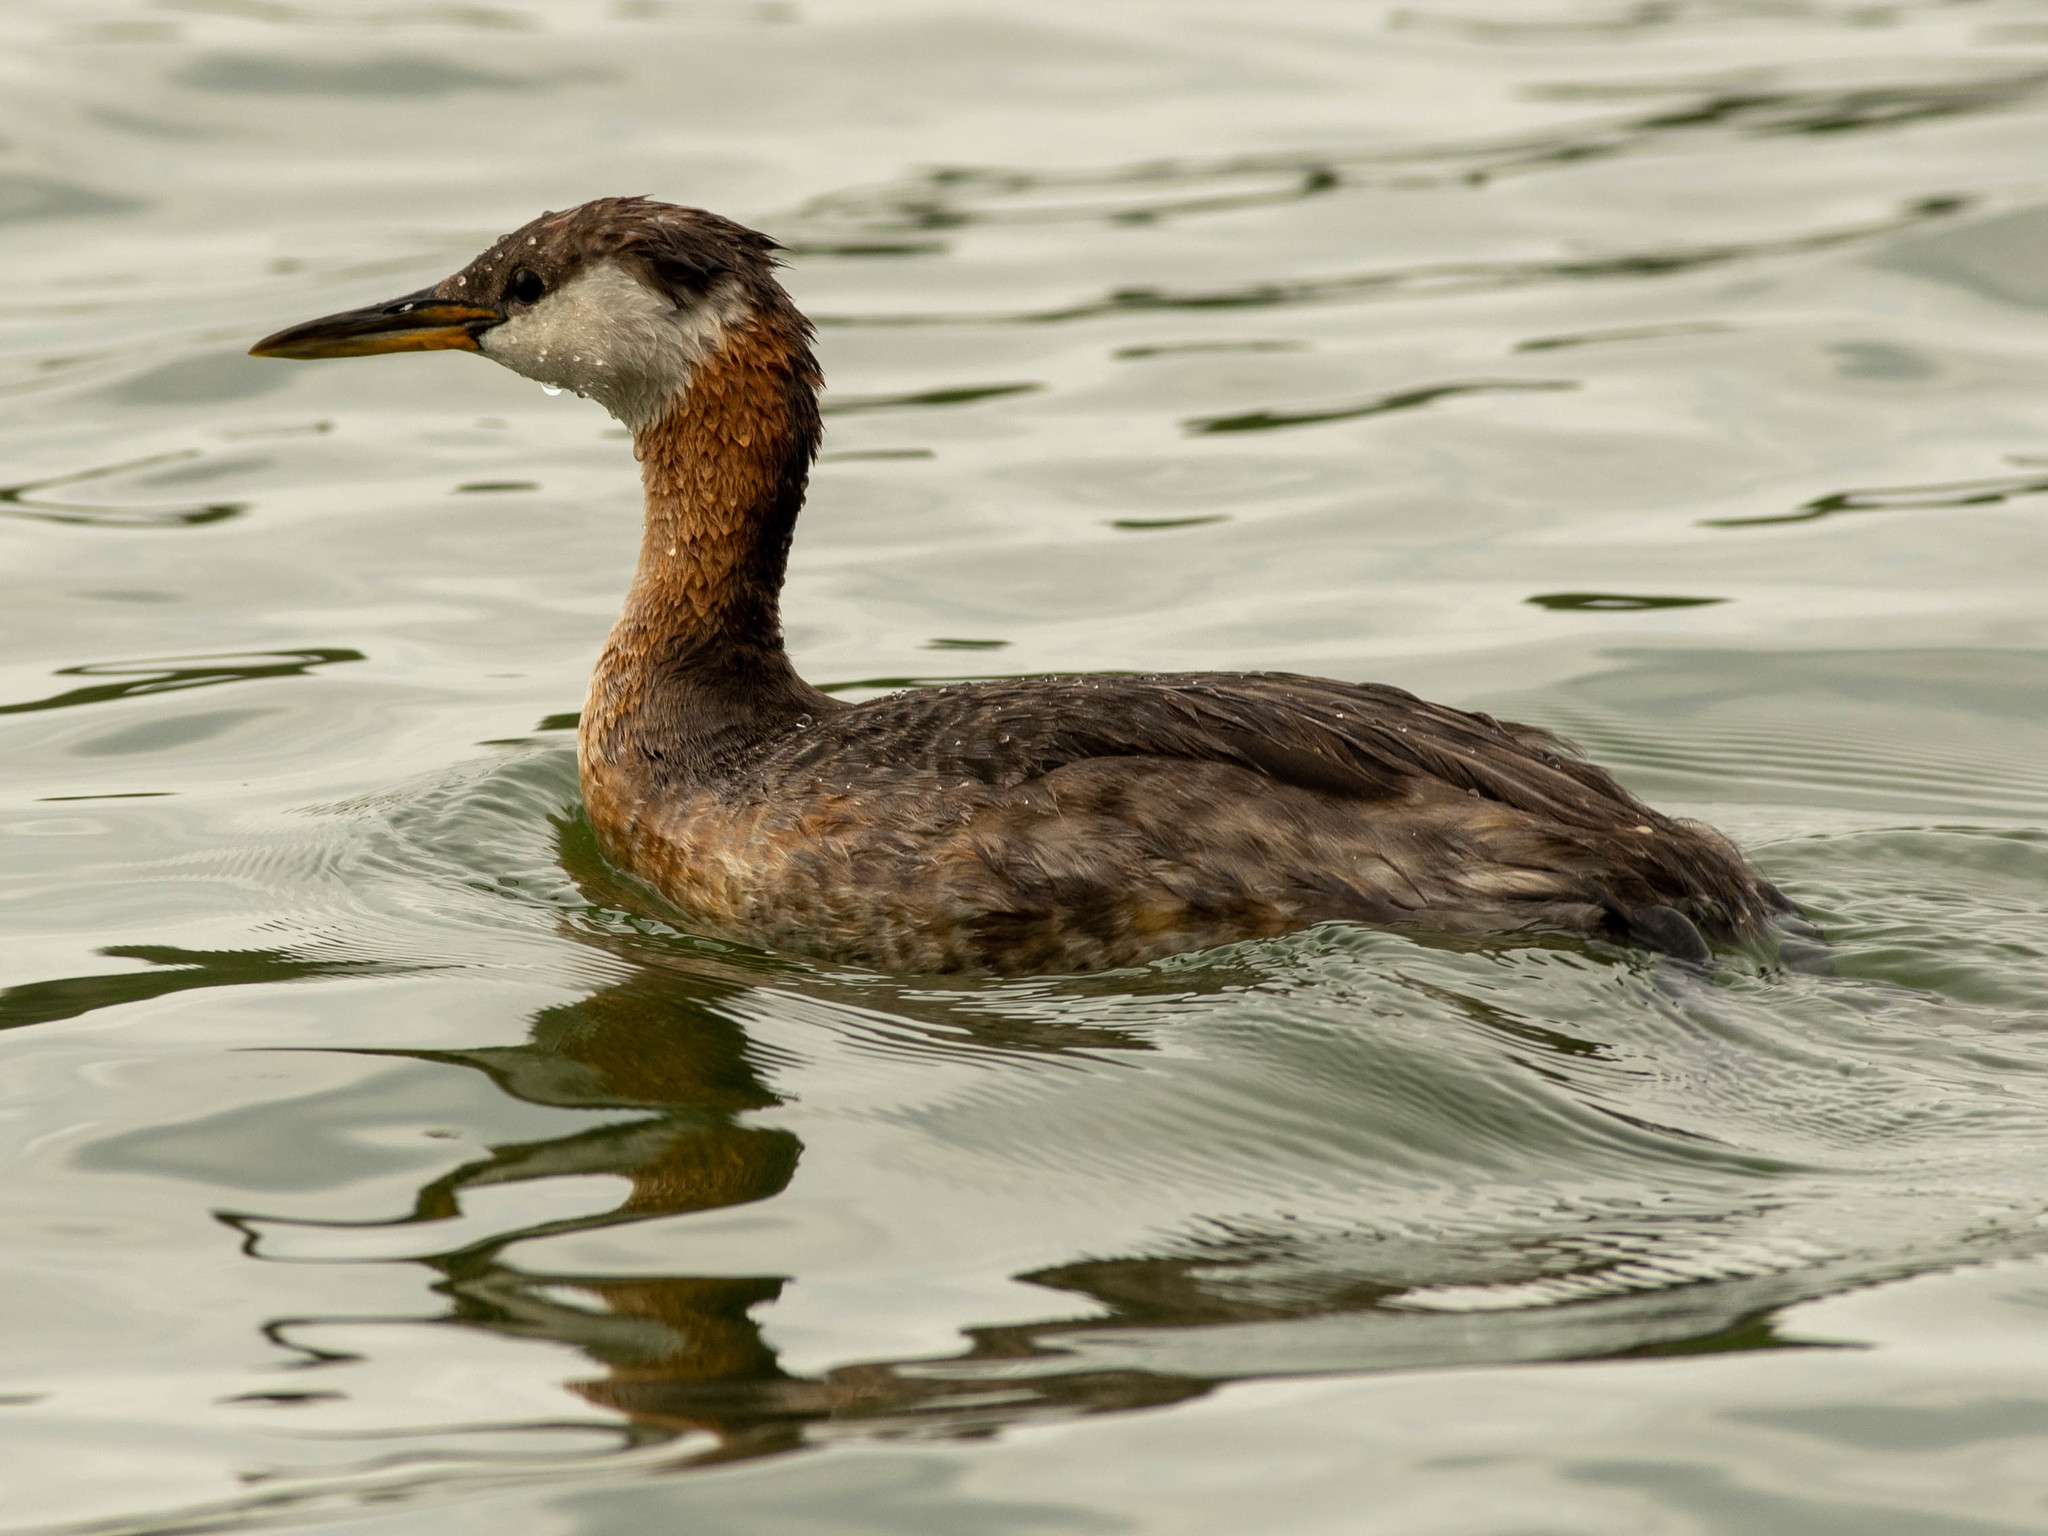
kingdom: Animalia
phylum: Chordata
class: Aves
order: Podicipediformes
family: Podicipedidae
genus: Podiceps
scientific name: Podiceps grisegena
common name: Red-necked grebe
